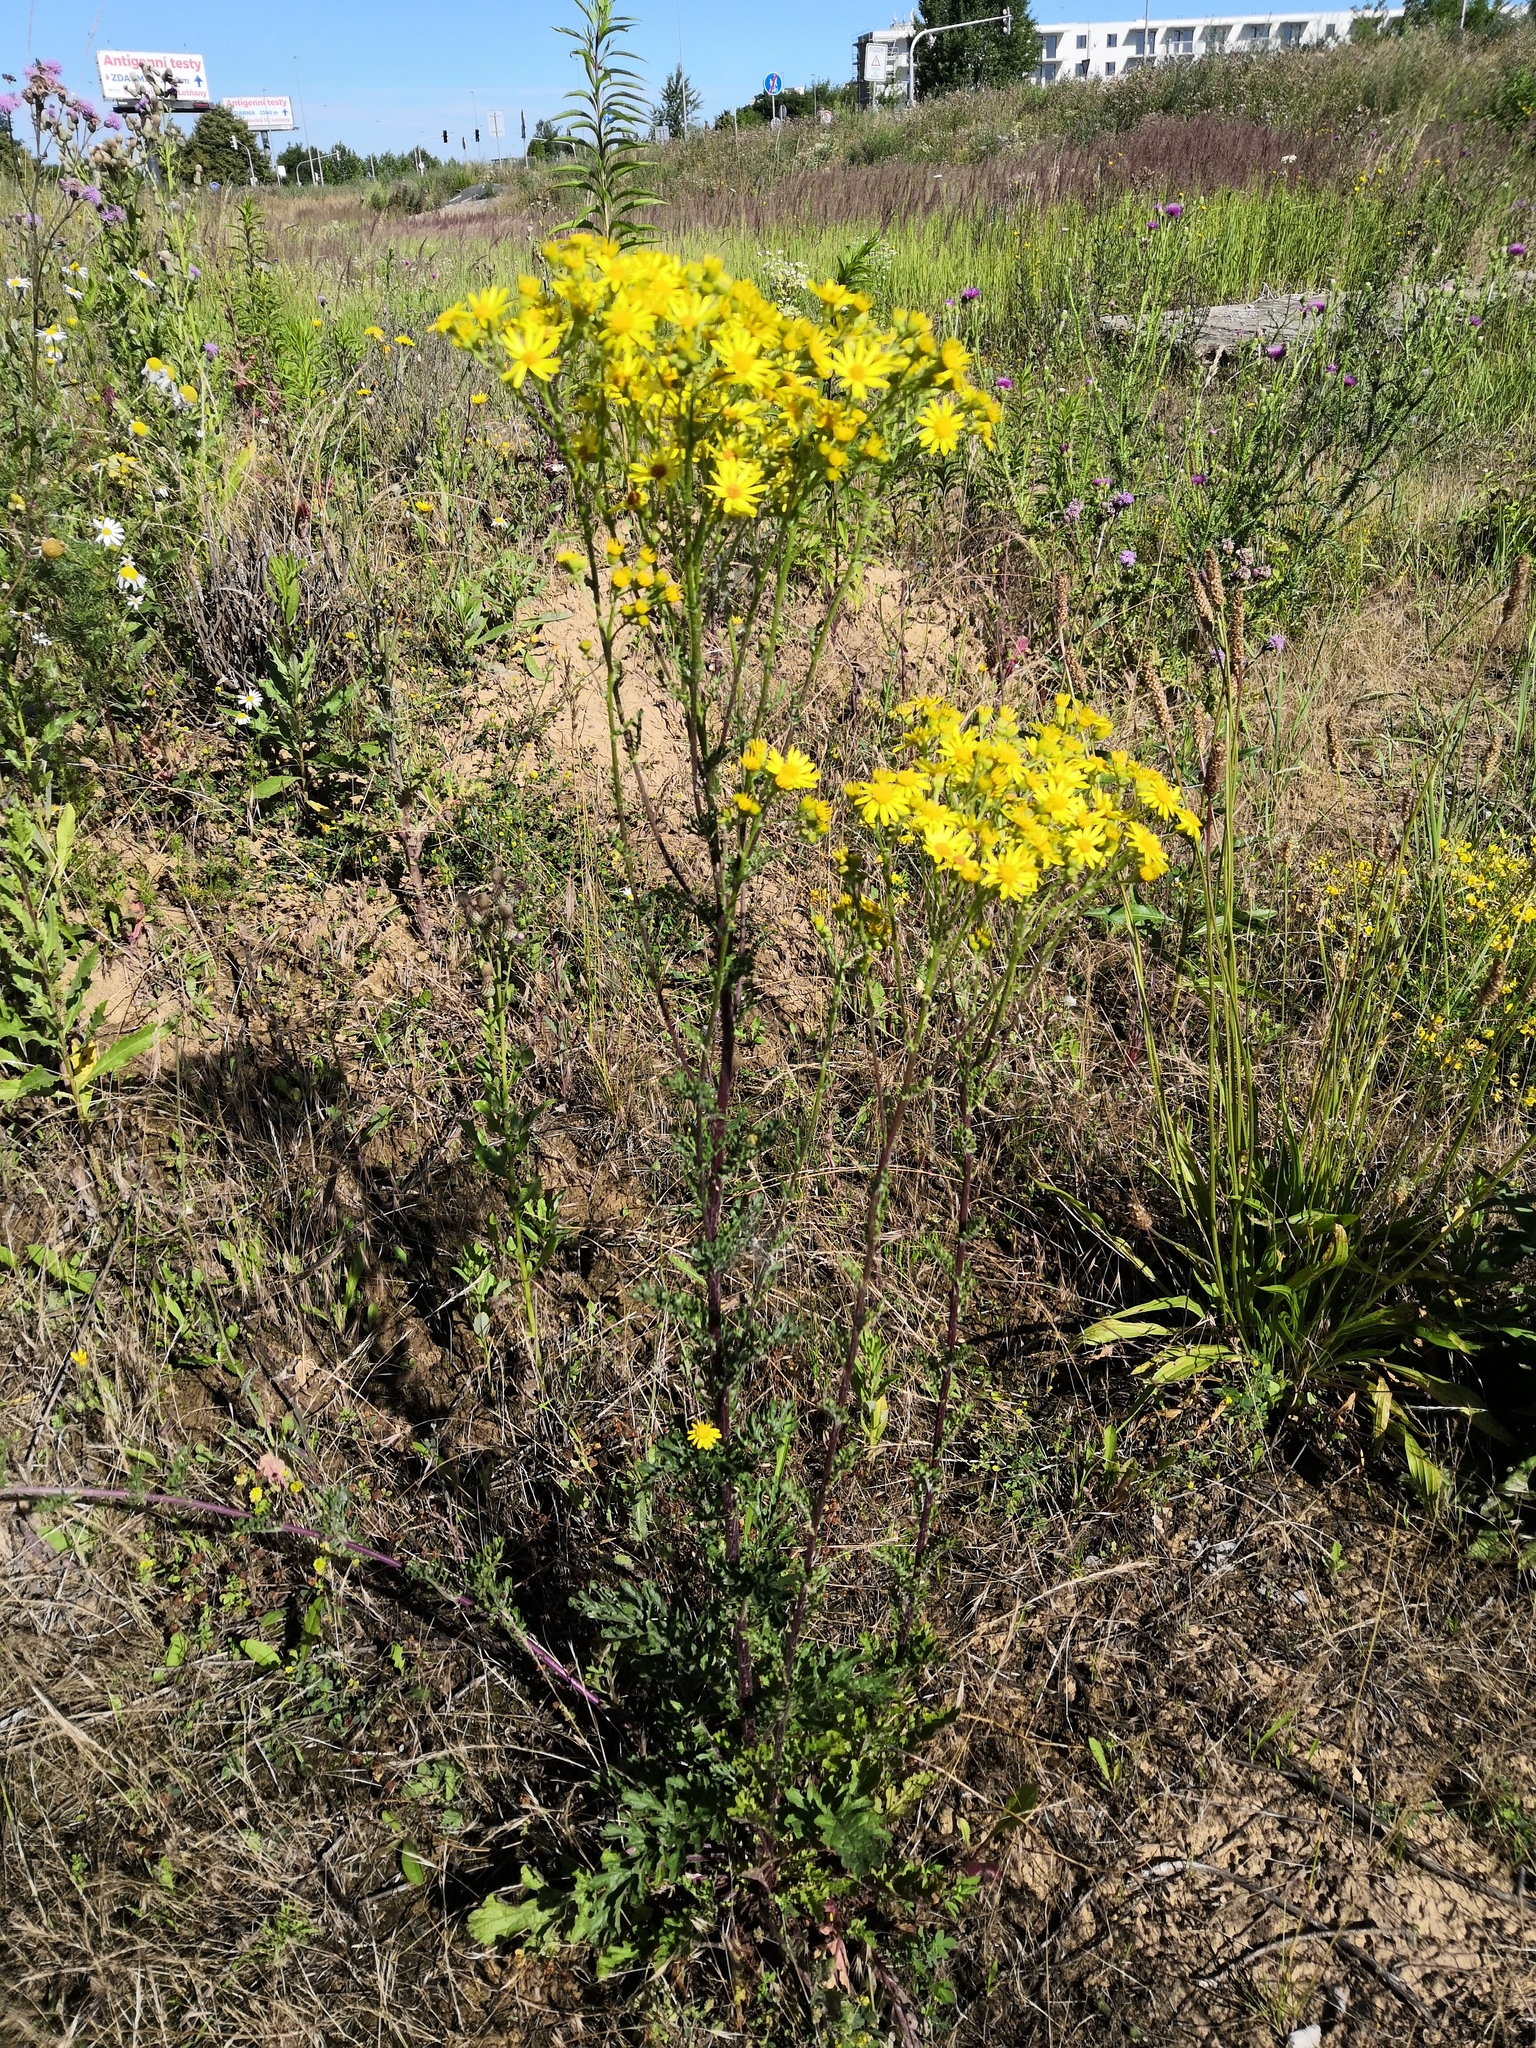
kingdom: Plantae
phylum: Tracheophyta
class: Magnoliopsida
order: Asterales
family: Asteraceae
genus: Jacobaea
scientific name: Jacobaea vulgaris
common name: Stinking willie
